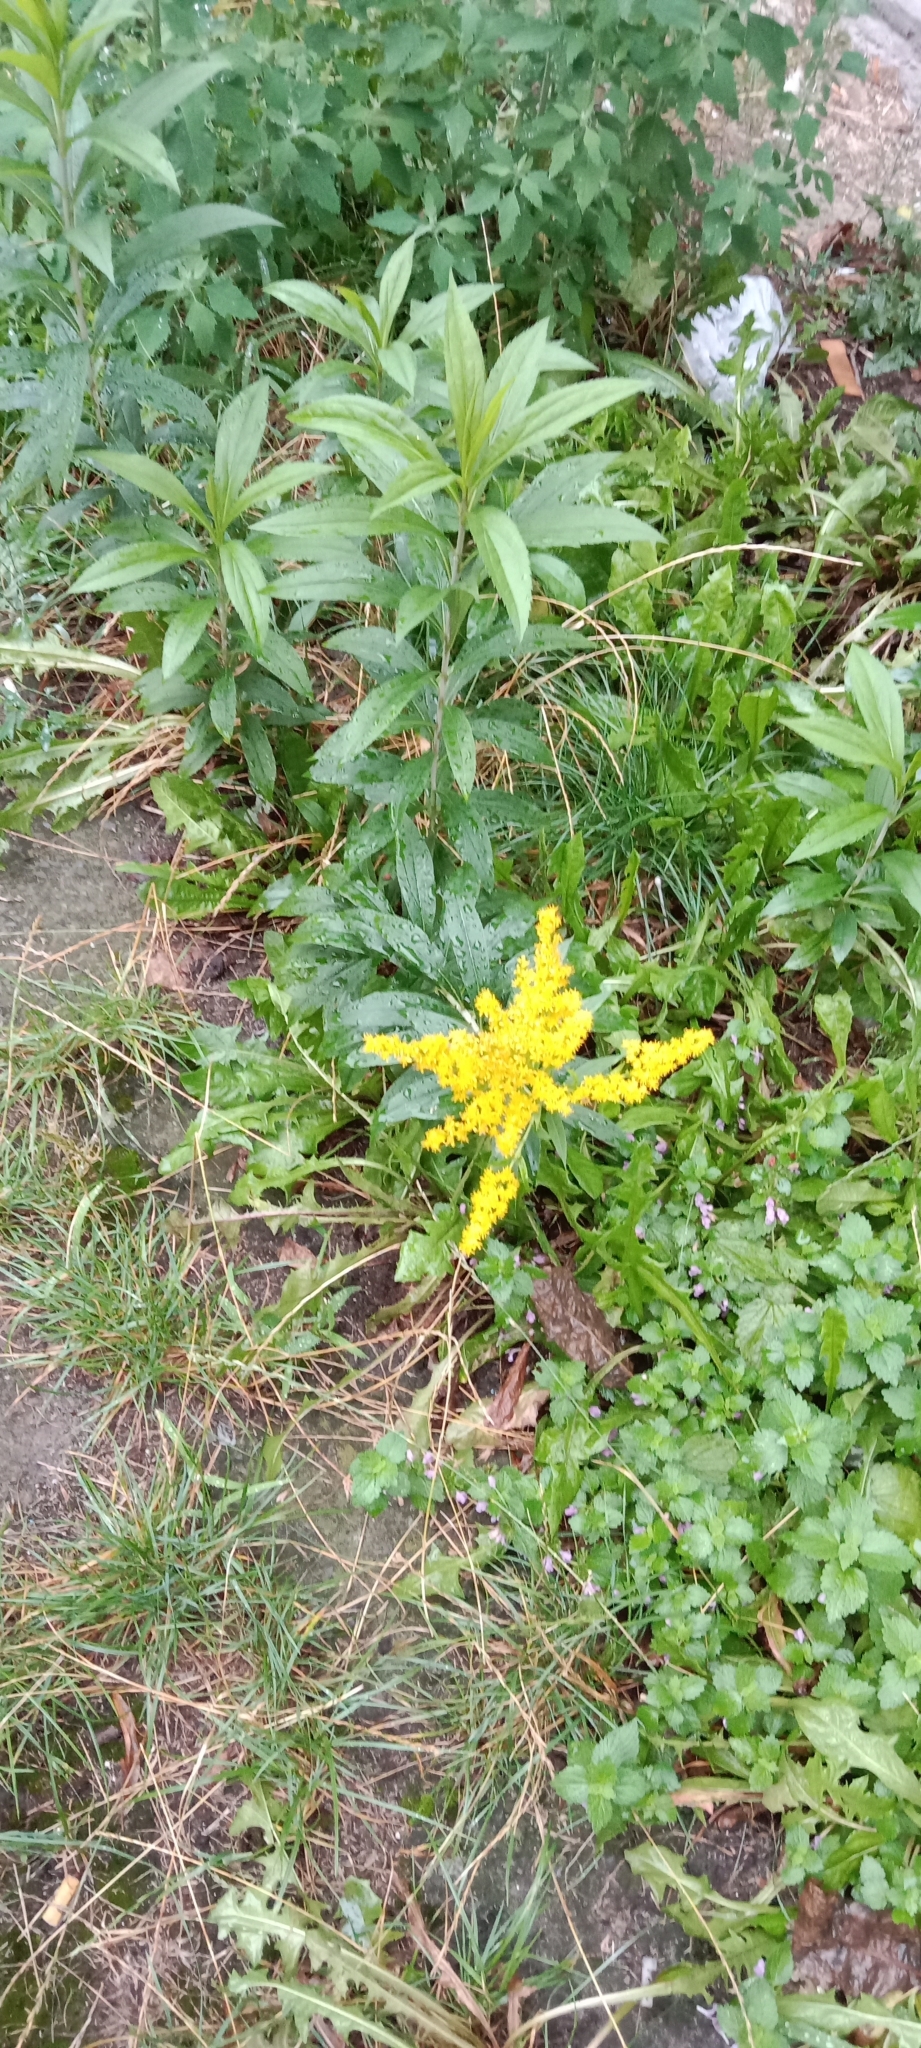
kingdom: Plantae
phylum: Tracheophyta
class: Magnoliopsida
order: Asterales
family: Asteraceae
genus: Solidago
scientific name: Solidago canadensis
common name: Canada goldenrod
